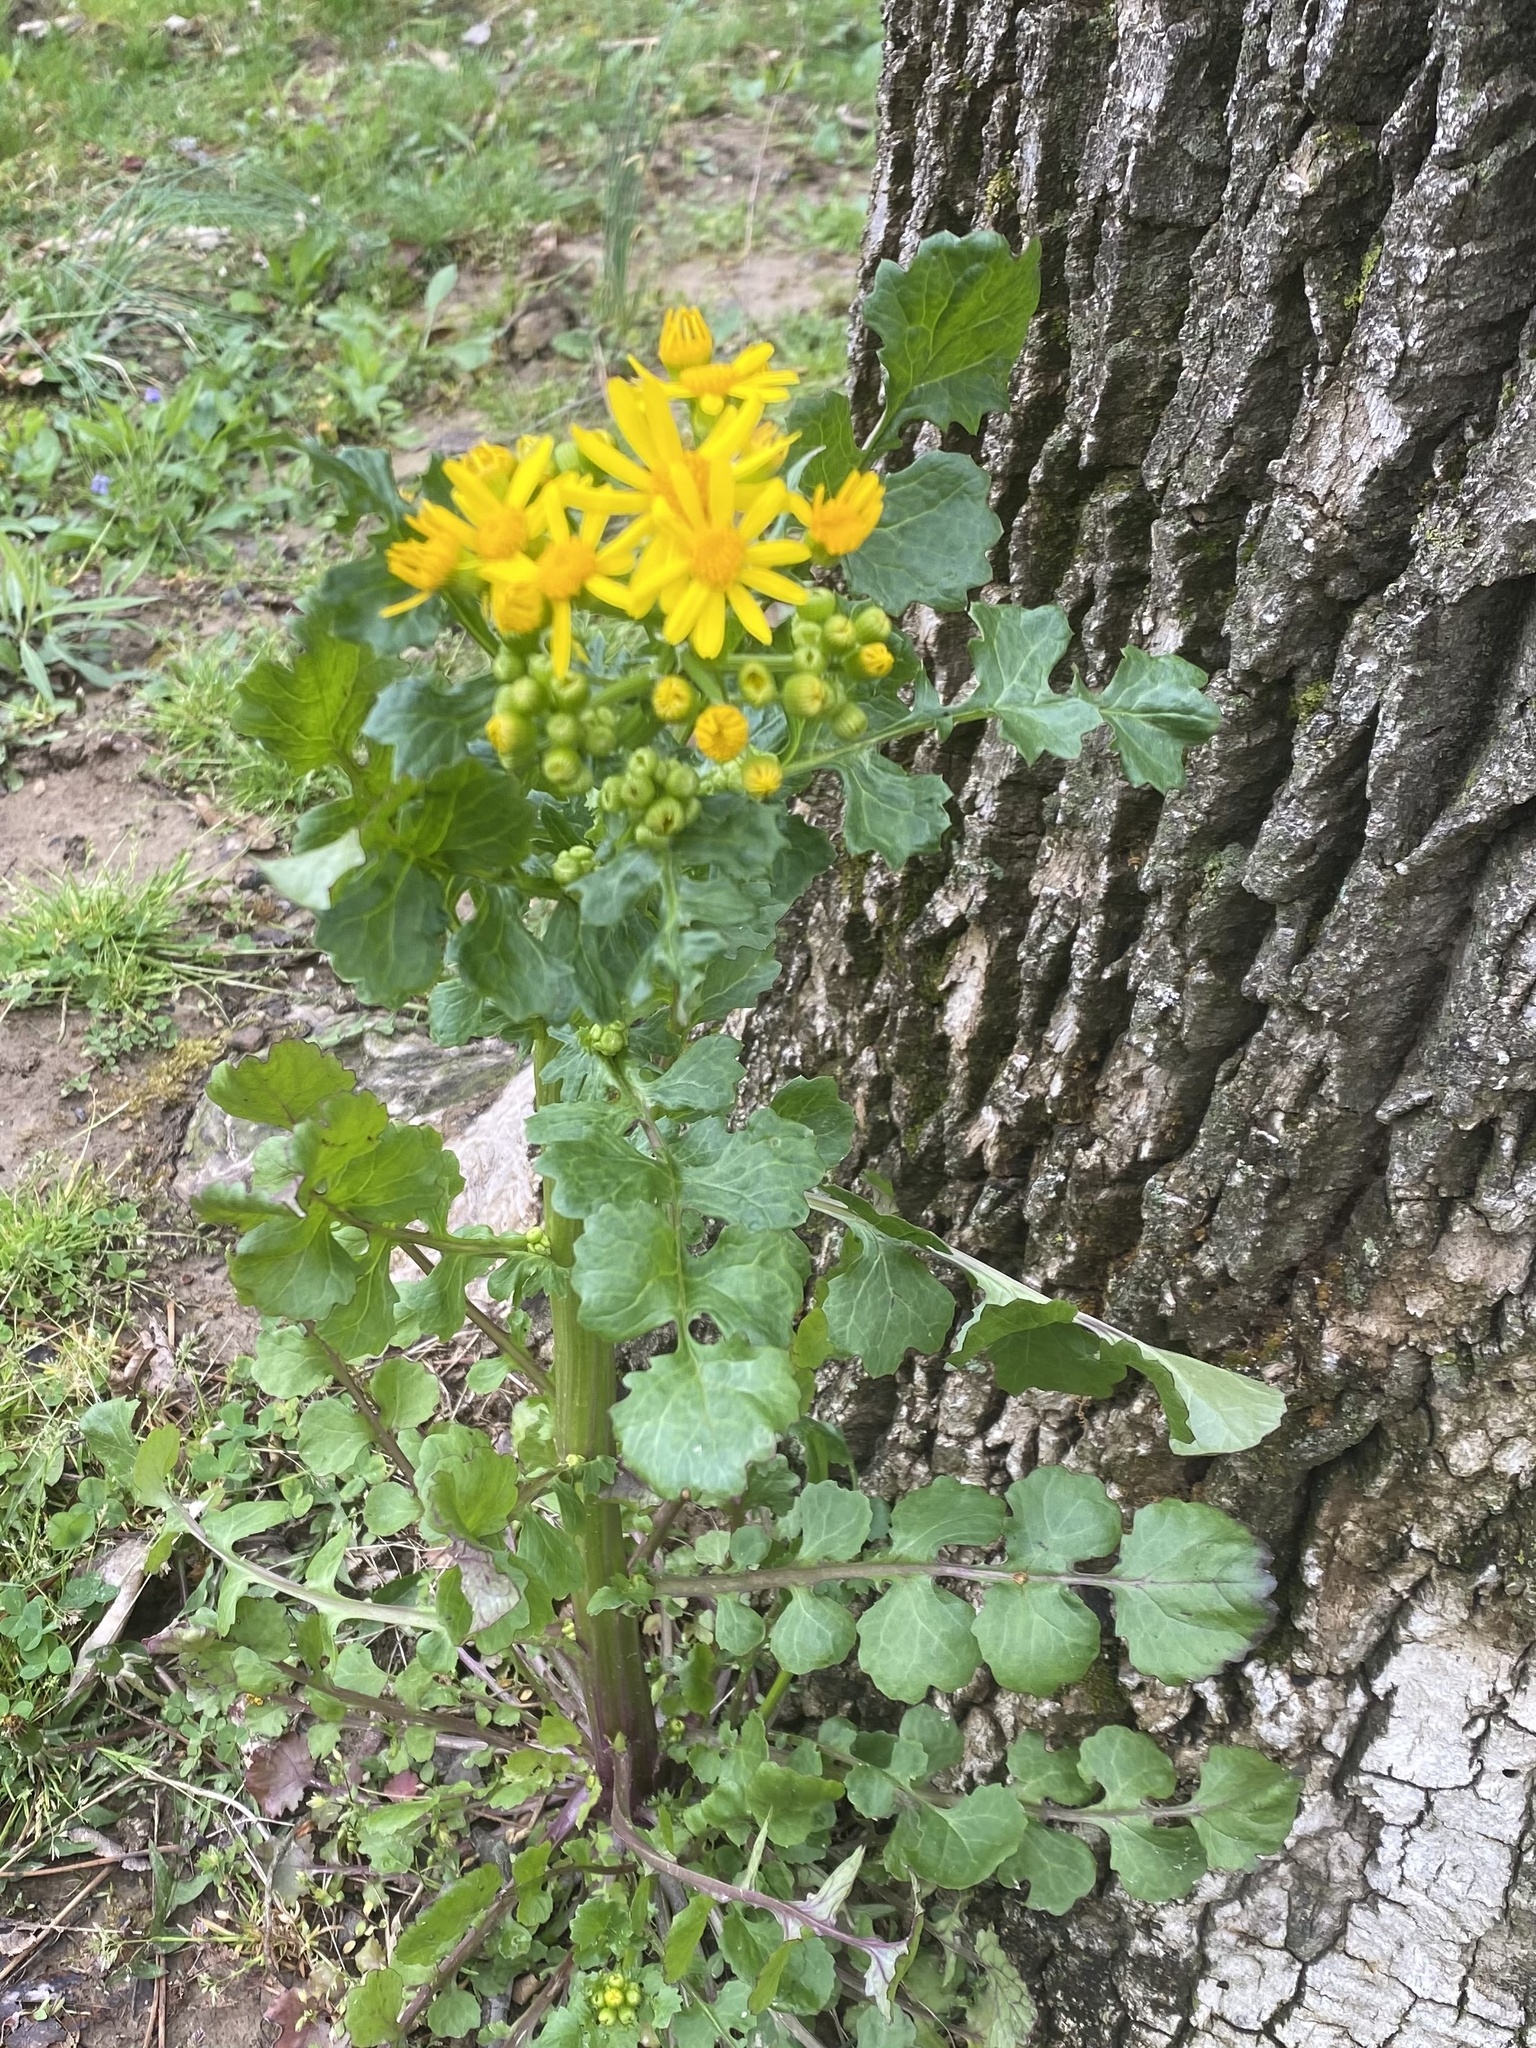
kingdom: Plantae
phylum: Tracheophyta
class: Magnoliopsida
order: Asterales
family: Asteraceae
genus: Packera
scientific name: Packera glabella
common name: Butterweed
